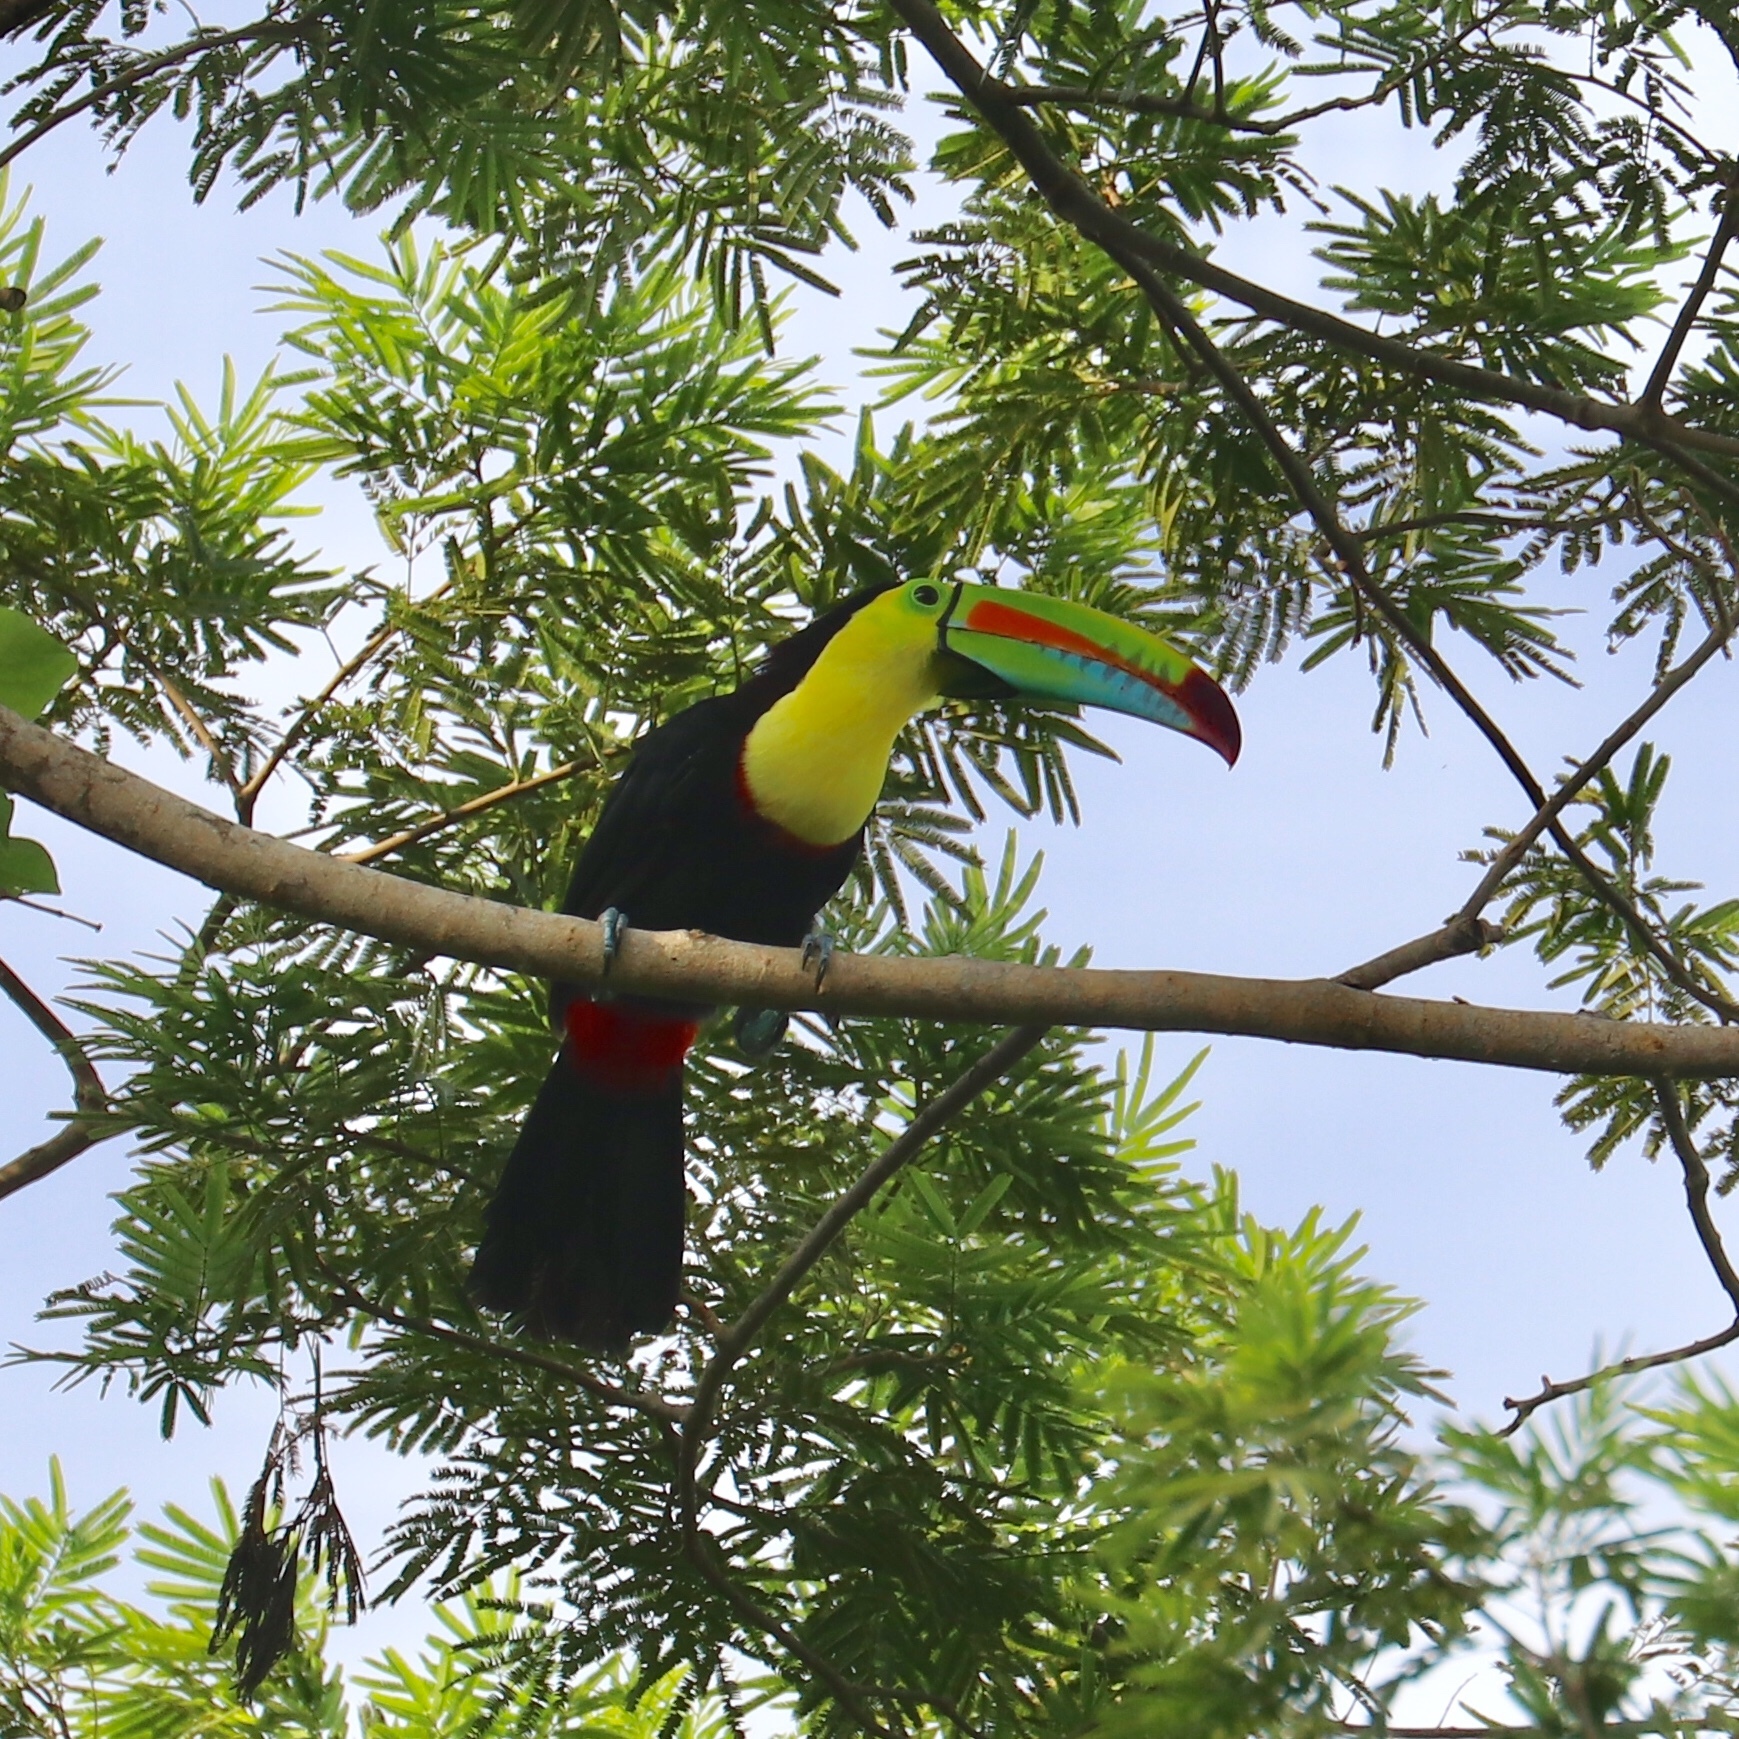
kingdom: Animalia
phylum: Chordata
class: Aves
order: Piciformes
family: Ramphastidae
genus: Ramphastos
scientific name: Ramphastos sulfuratus
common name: Keel-billed toucan
